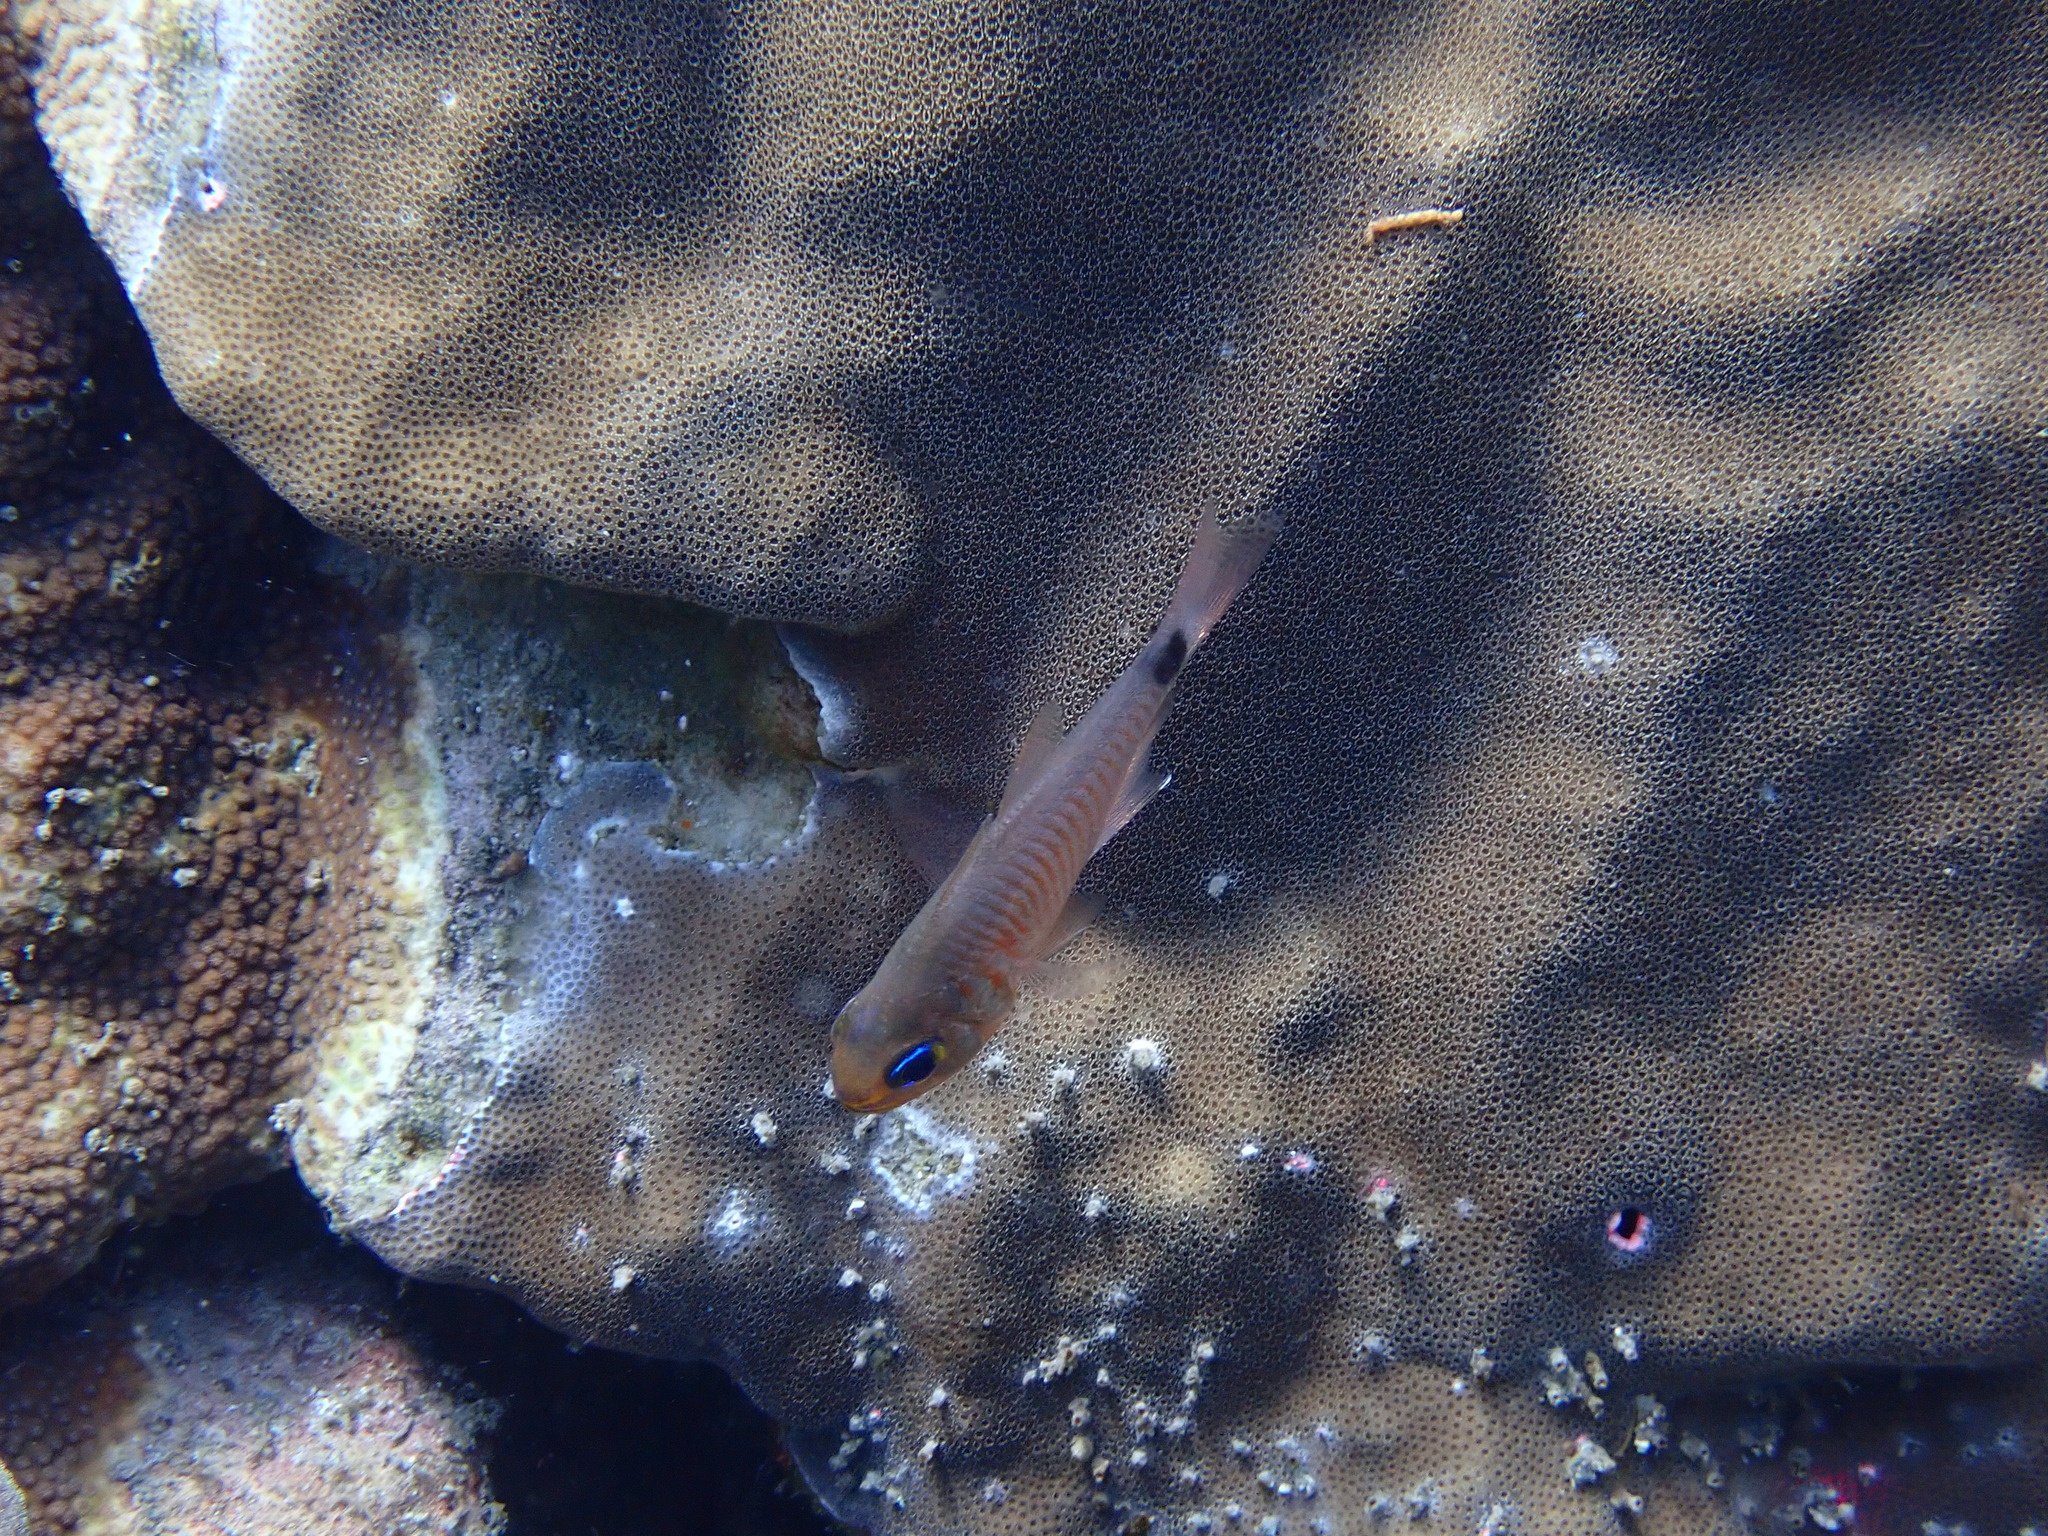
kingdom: Animalia
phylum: Chordata
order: Perciformes
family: Apogonidae
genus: Taeniamia
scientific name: Taeniamia fucata
